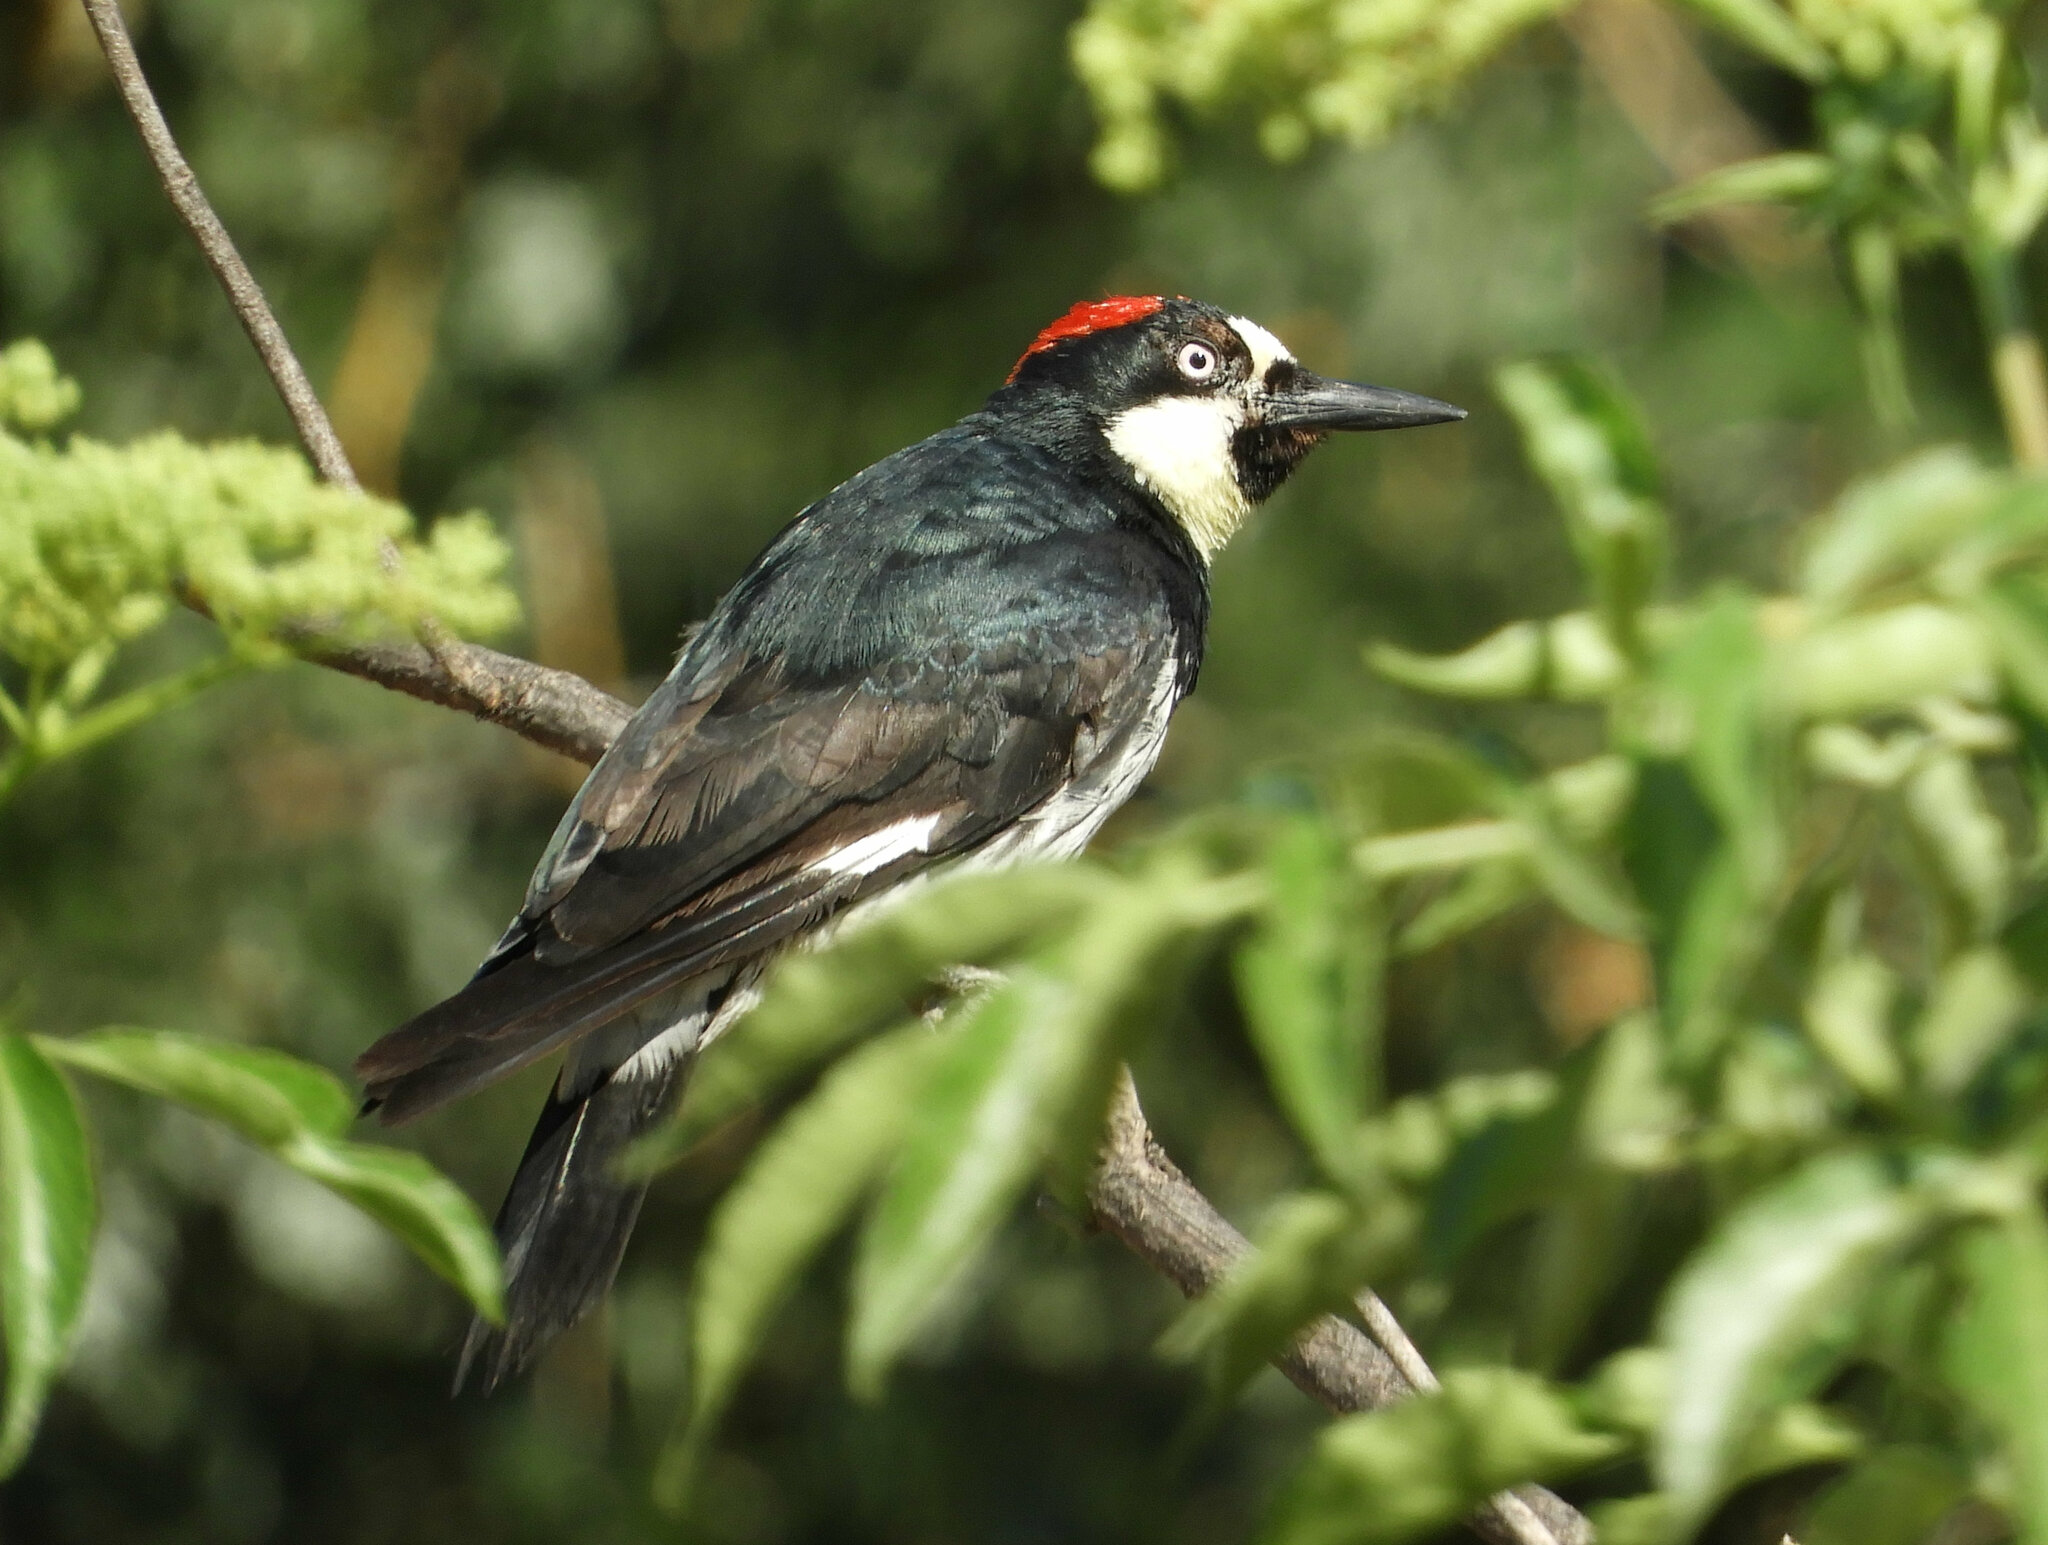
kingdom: Animalia
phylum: Chordata
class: Aves
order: Piciformes
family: Picidae
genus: Melanerpes
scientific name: Melanerpes formicivorus
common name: Acorn woodpecker
